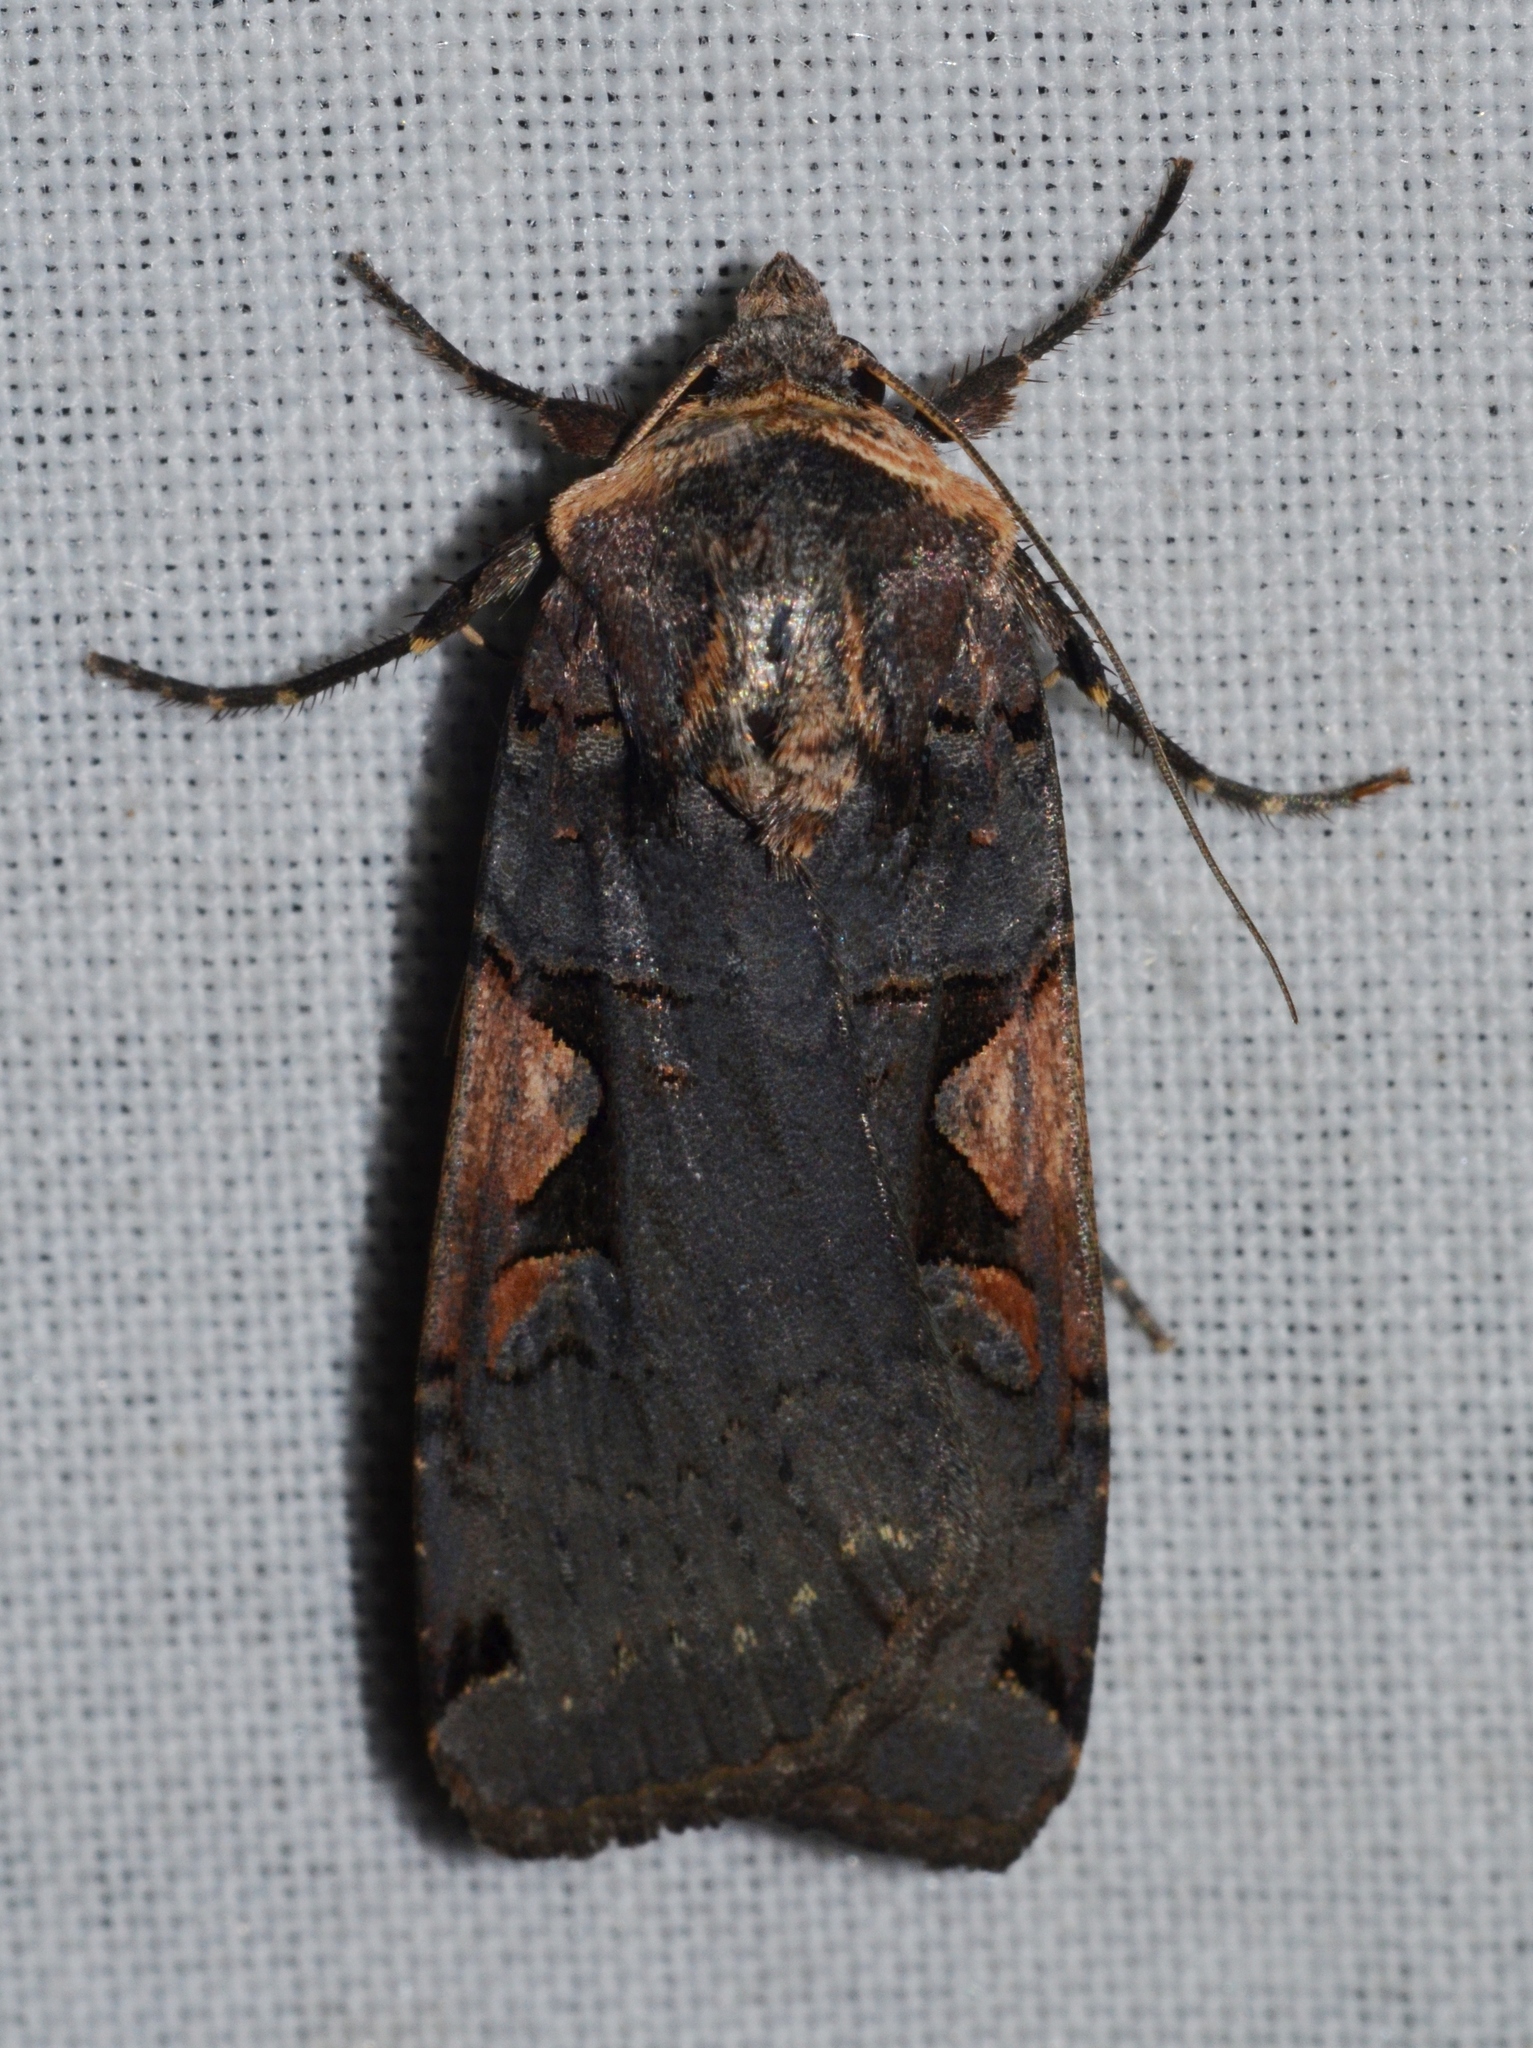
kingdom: Animalia
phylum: Arthropoda
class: Insecta
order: Lepidoptera
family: Noctuidae
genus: Xestia
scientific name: Xestia dolosa
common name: Cutworm moth
